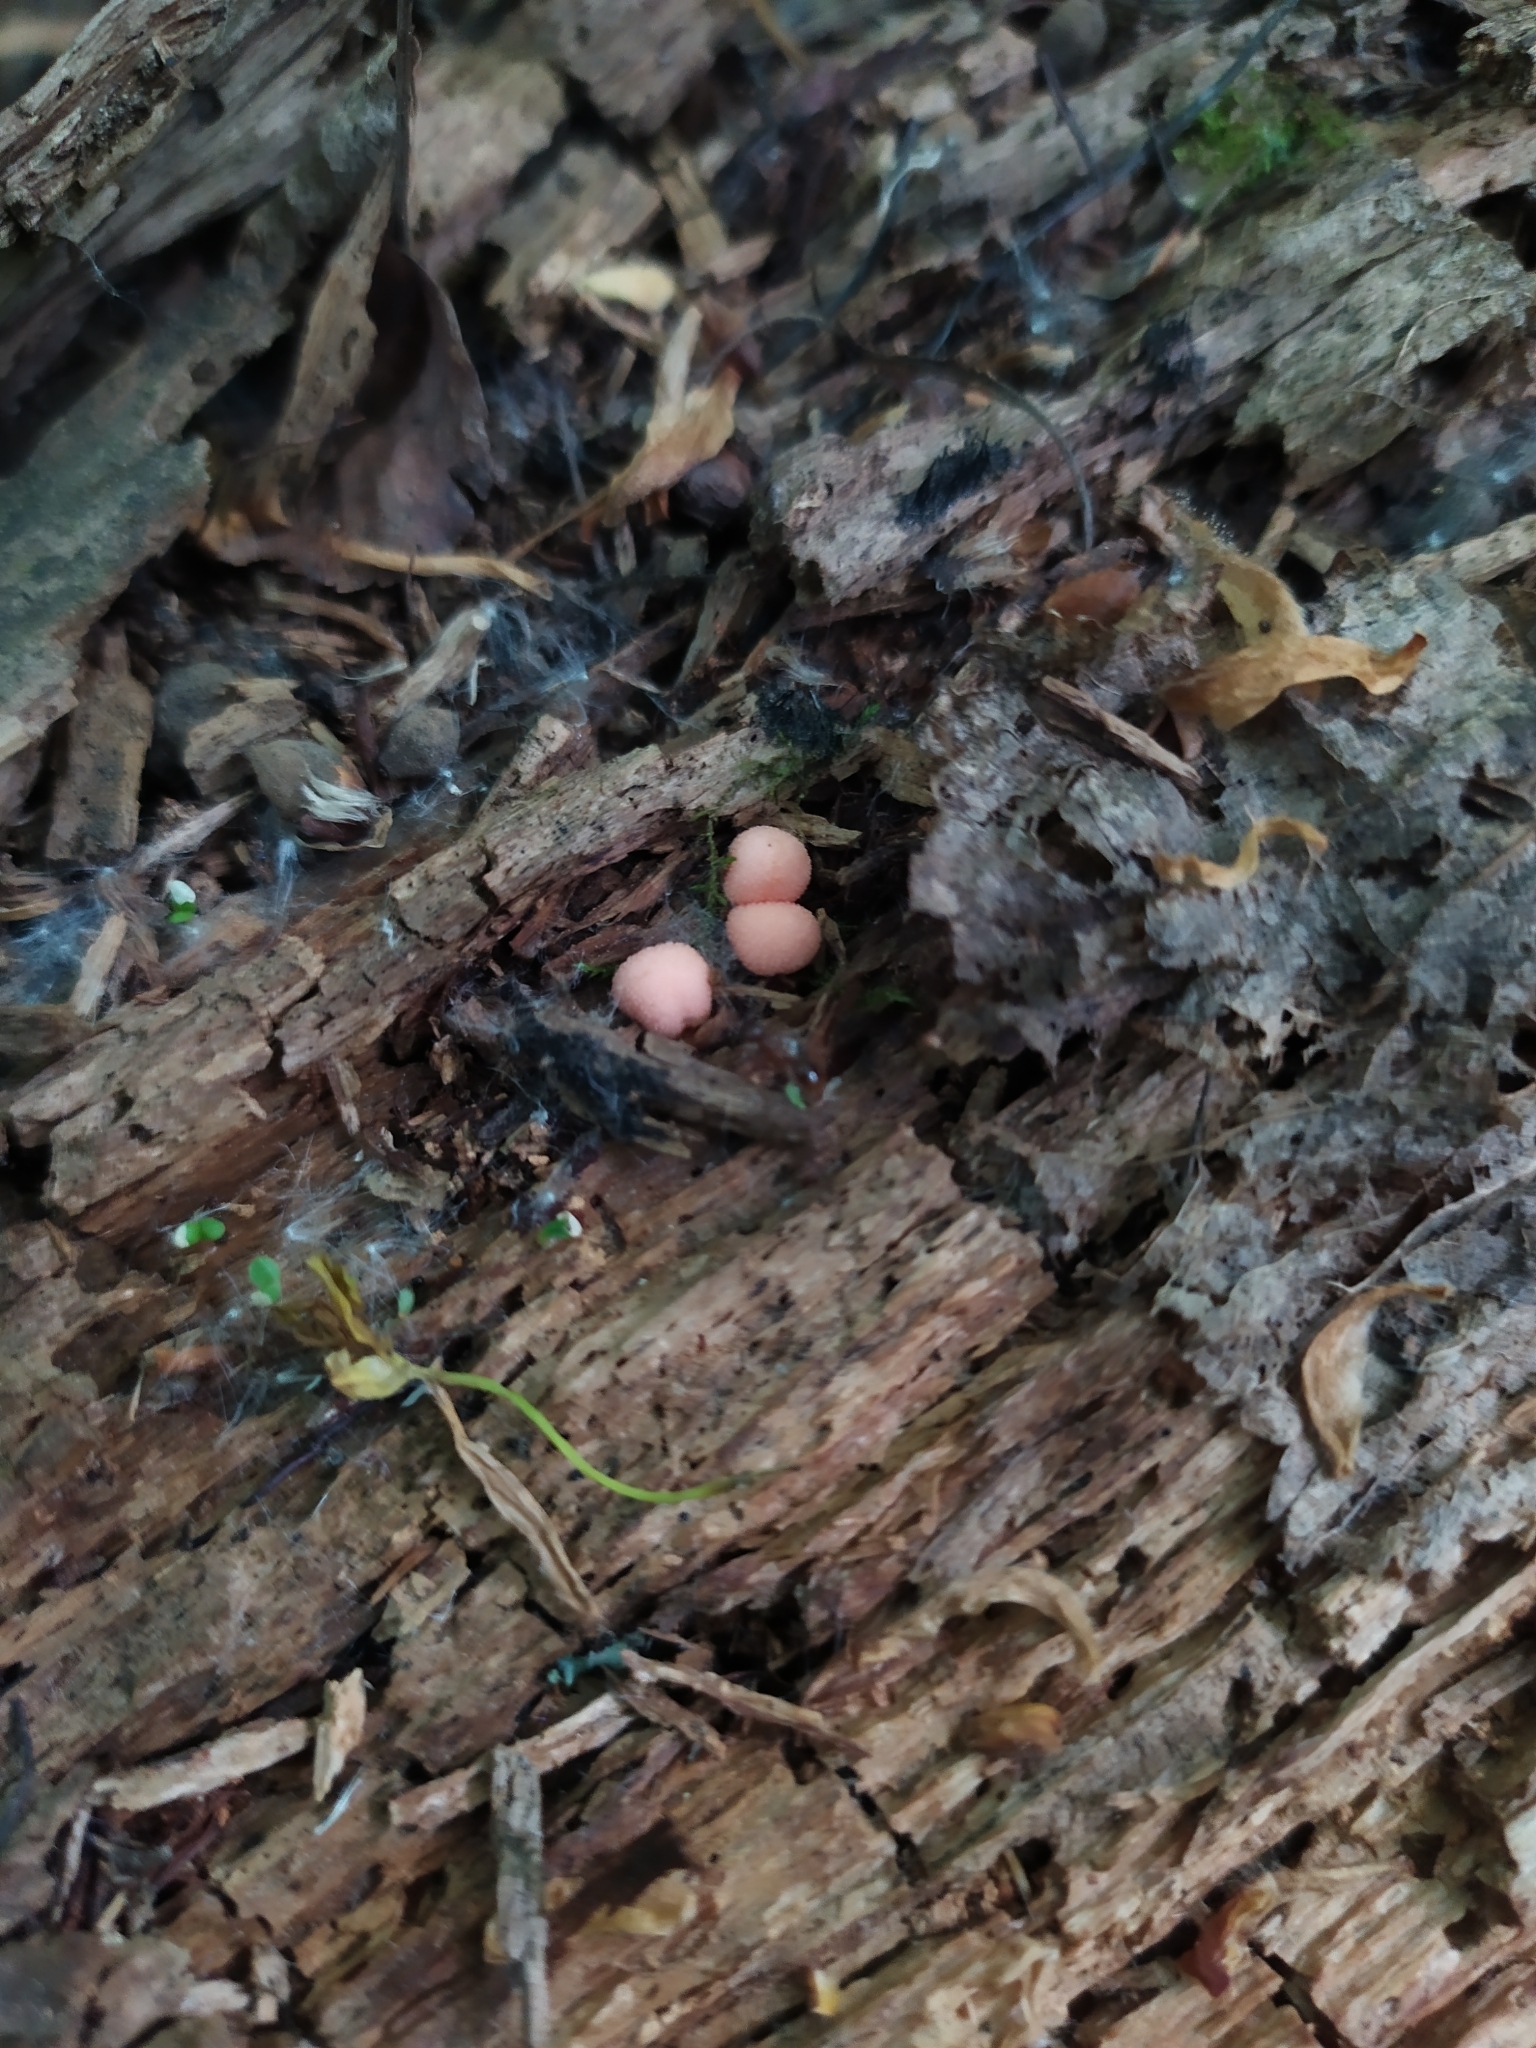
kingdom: Protozoa
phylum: Mycetozoa
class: Myxomycetes
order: Cribrariales
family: Tubiferaceae
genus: Lycogala
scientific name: Lycogala epidendrum
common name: Wolf's milk
